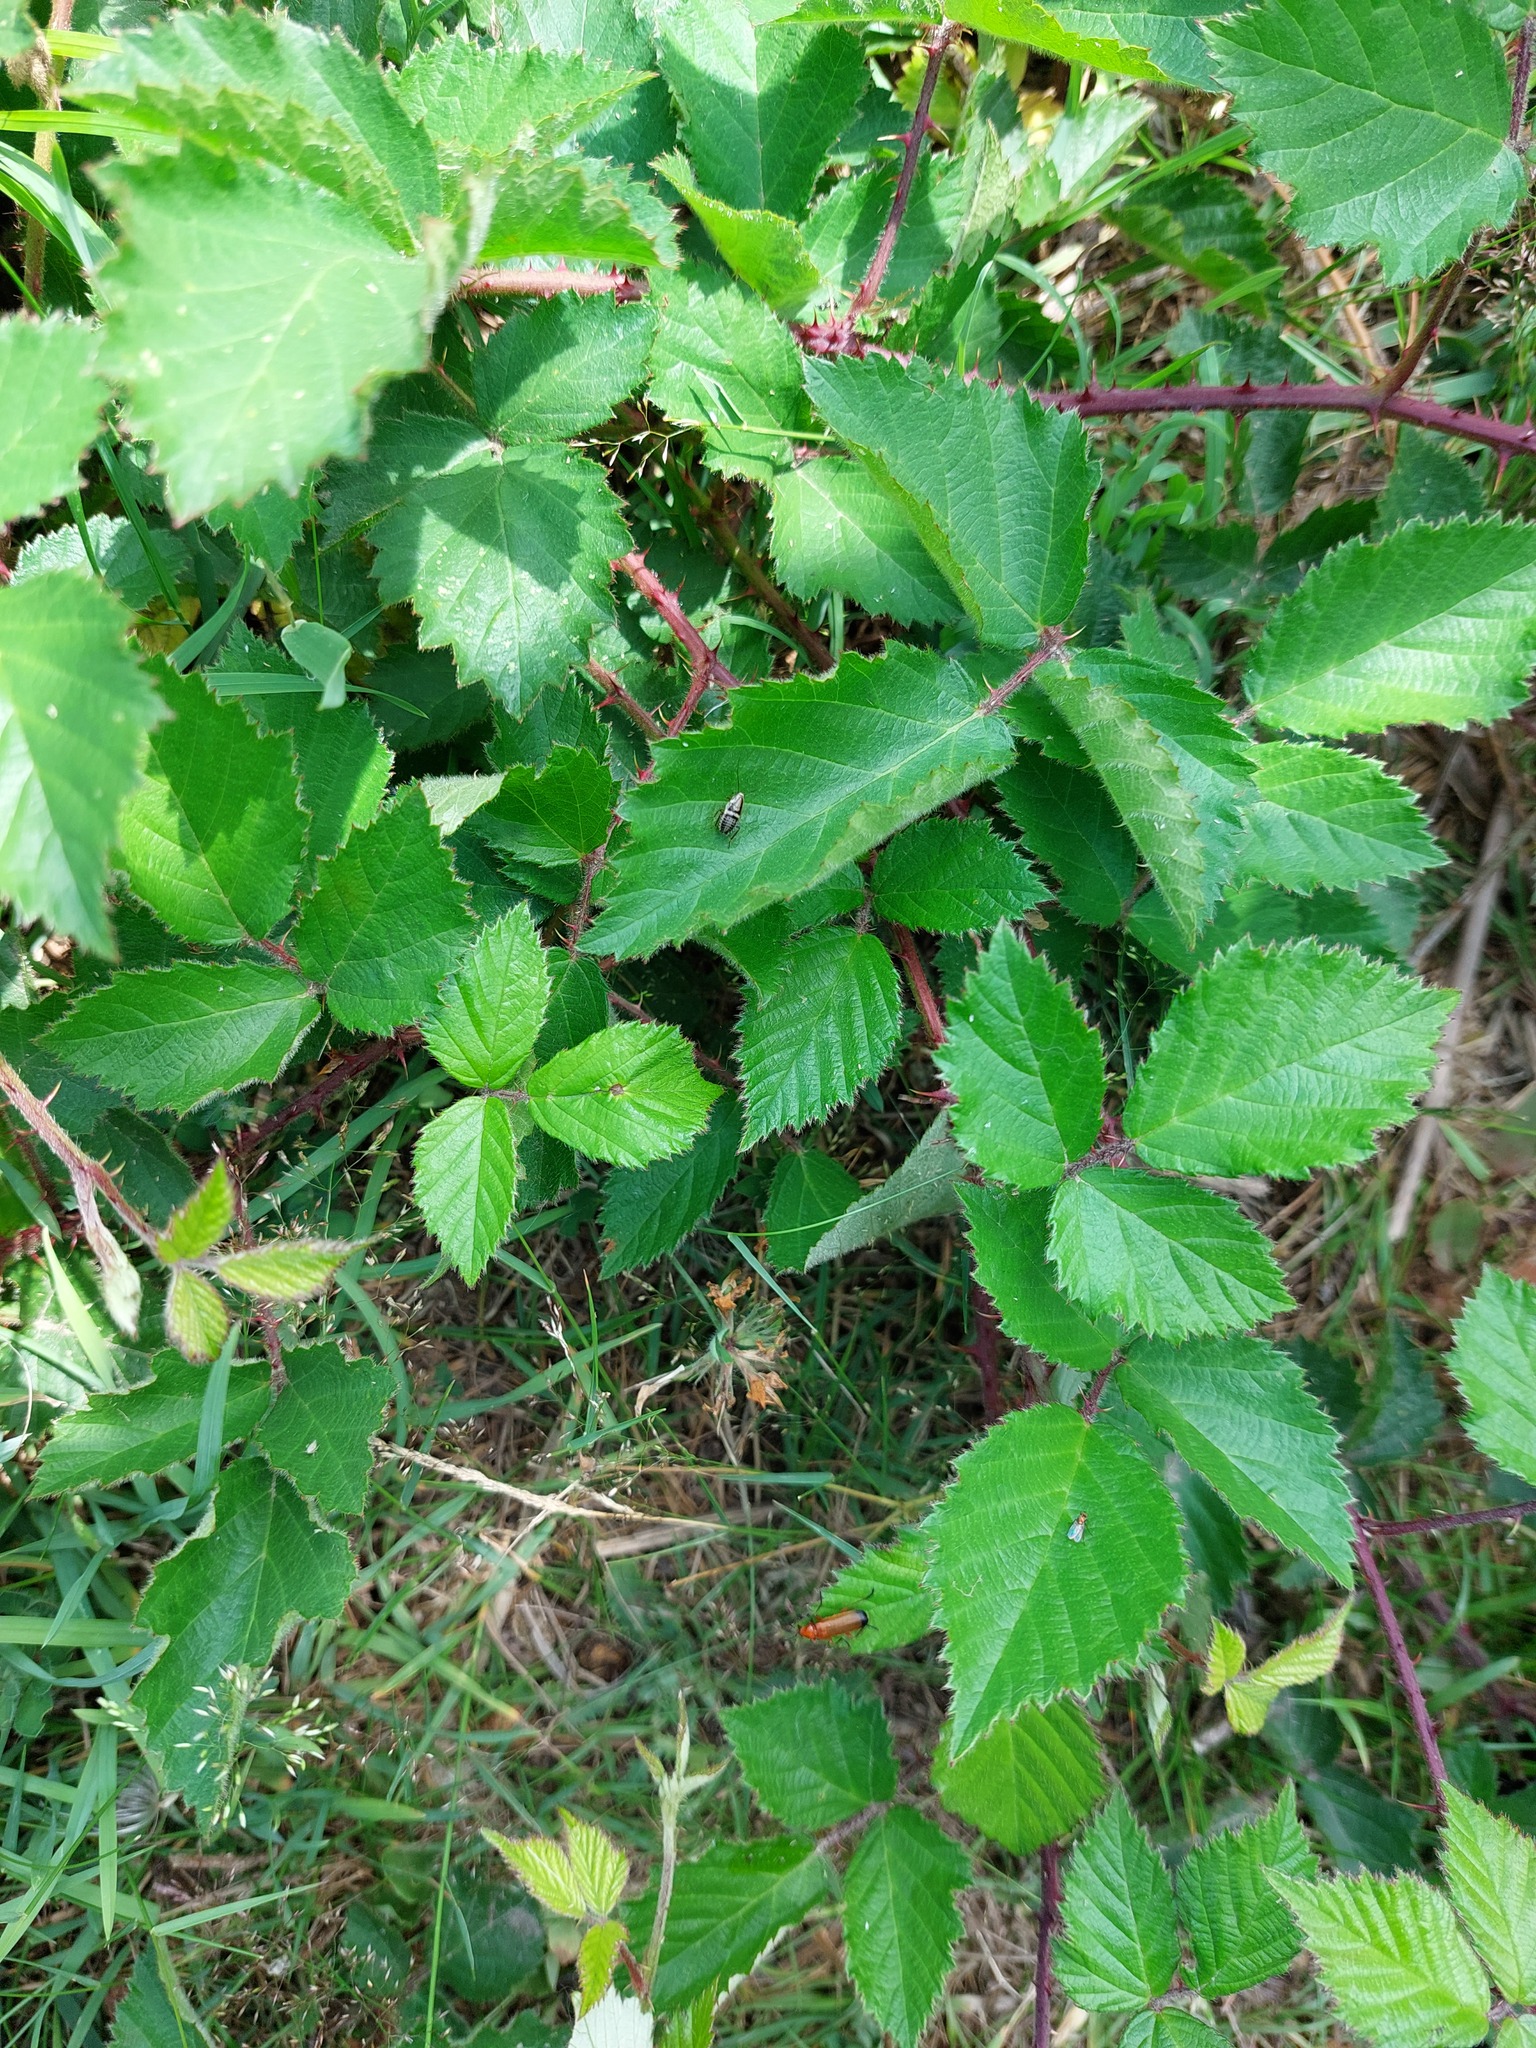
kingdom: Animalia
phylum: Arthropoda
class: Insecta
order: Blattodea
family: Ectobiidae
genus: Capraiellus
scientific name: Capraiellus panzeri
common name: Lesser cockroach
